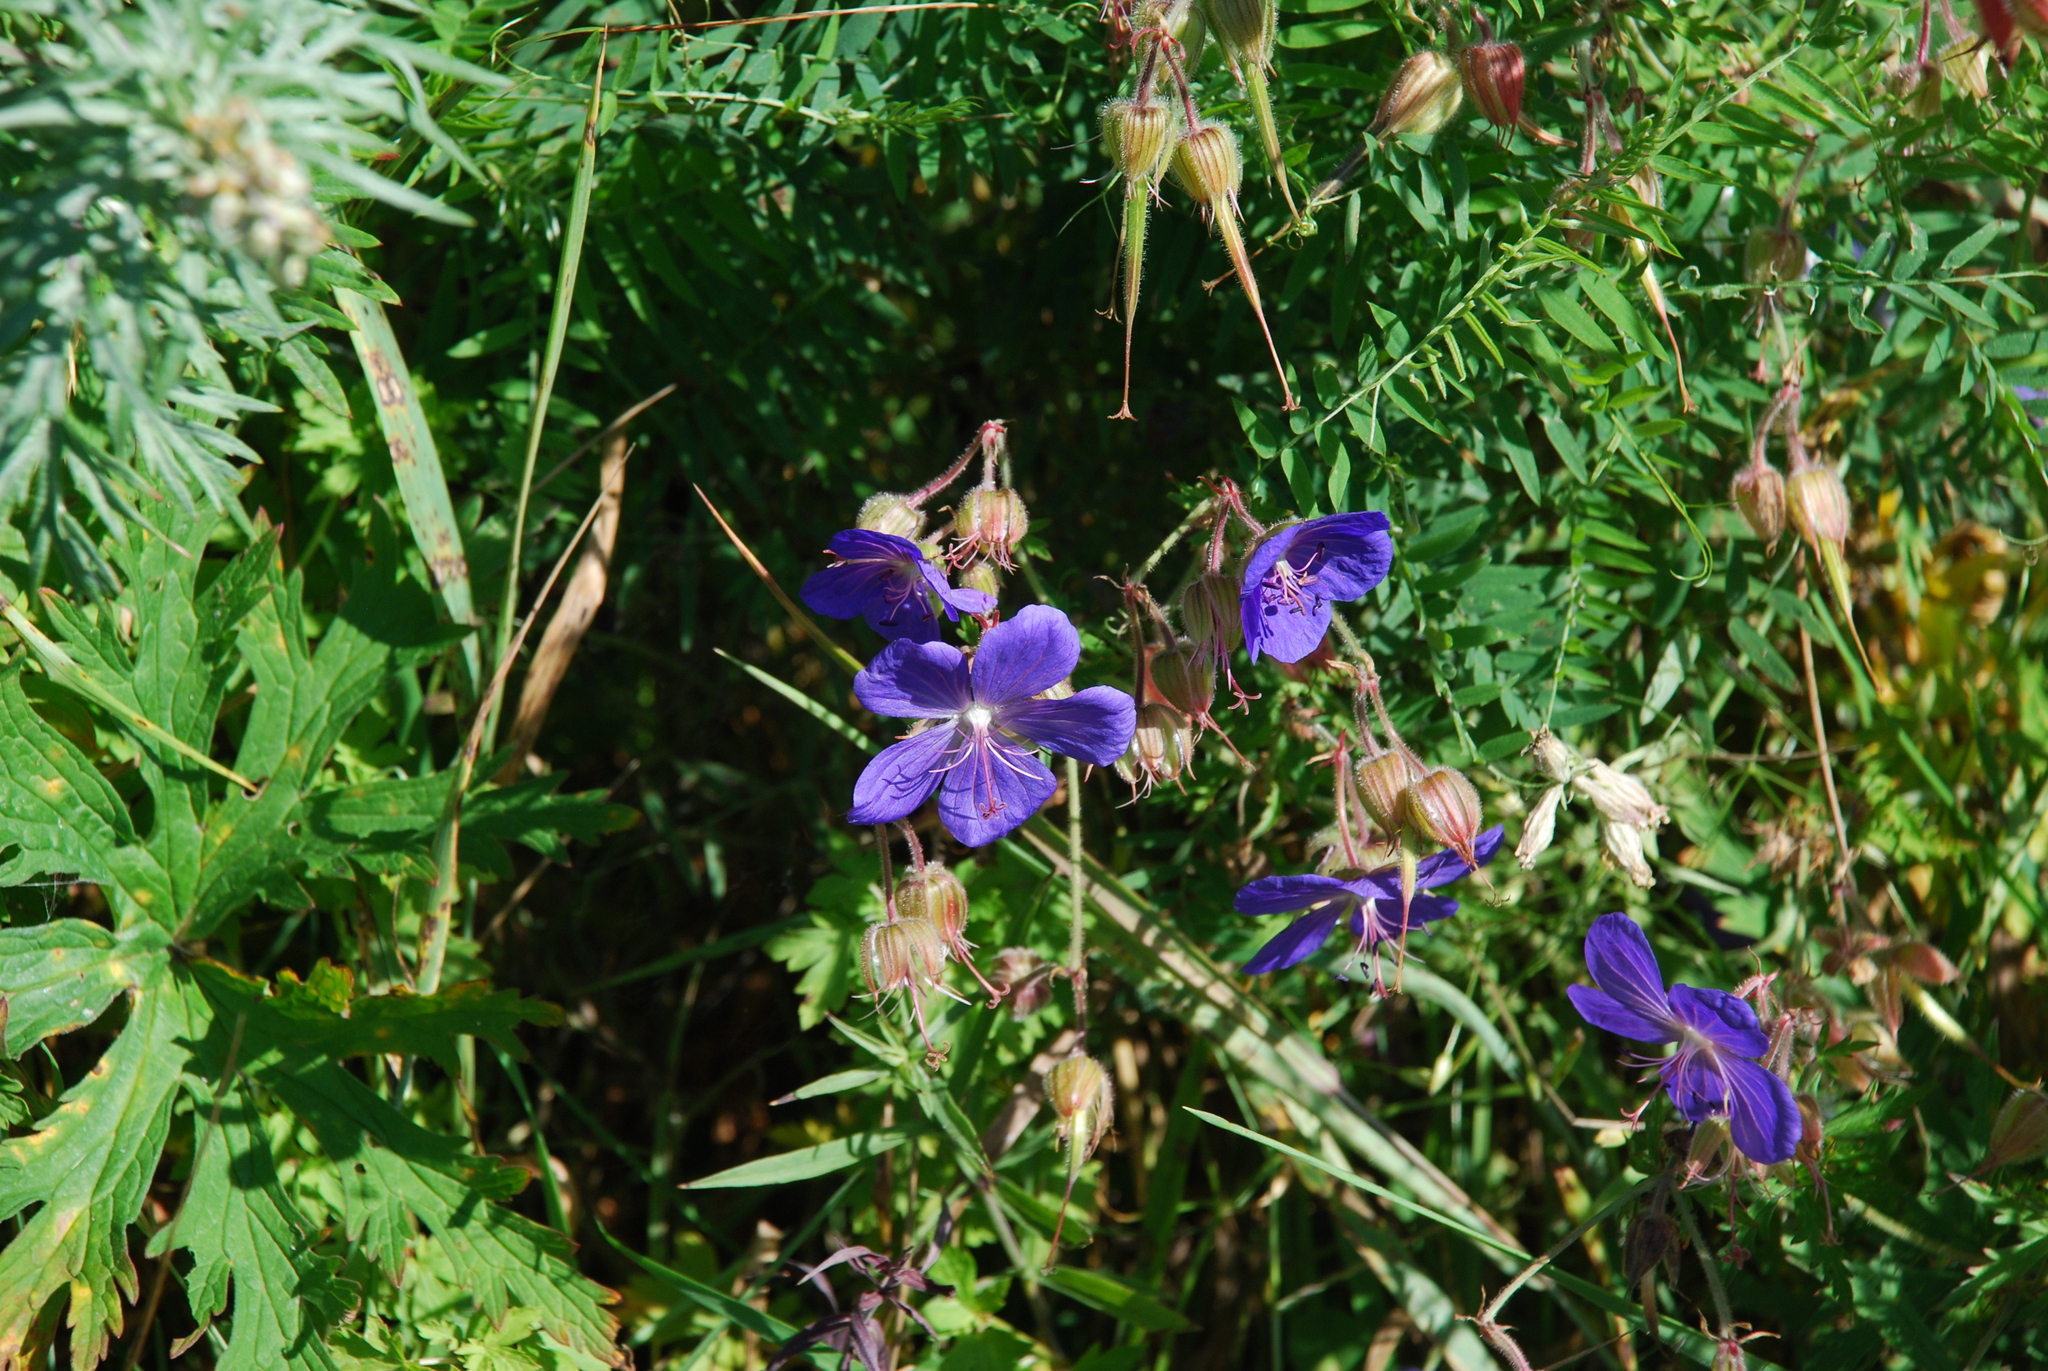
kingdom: Plantae
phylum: Tracheophyta
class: Magnoliopsida
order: Geraniales
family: Geraniaceae
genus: Geranium
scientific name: Geranium pratense
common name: Meadow crane's-bill
